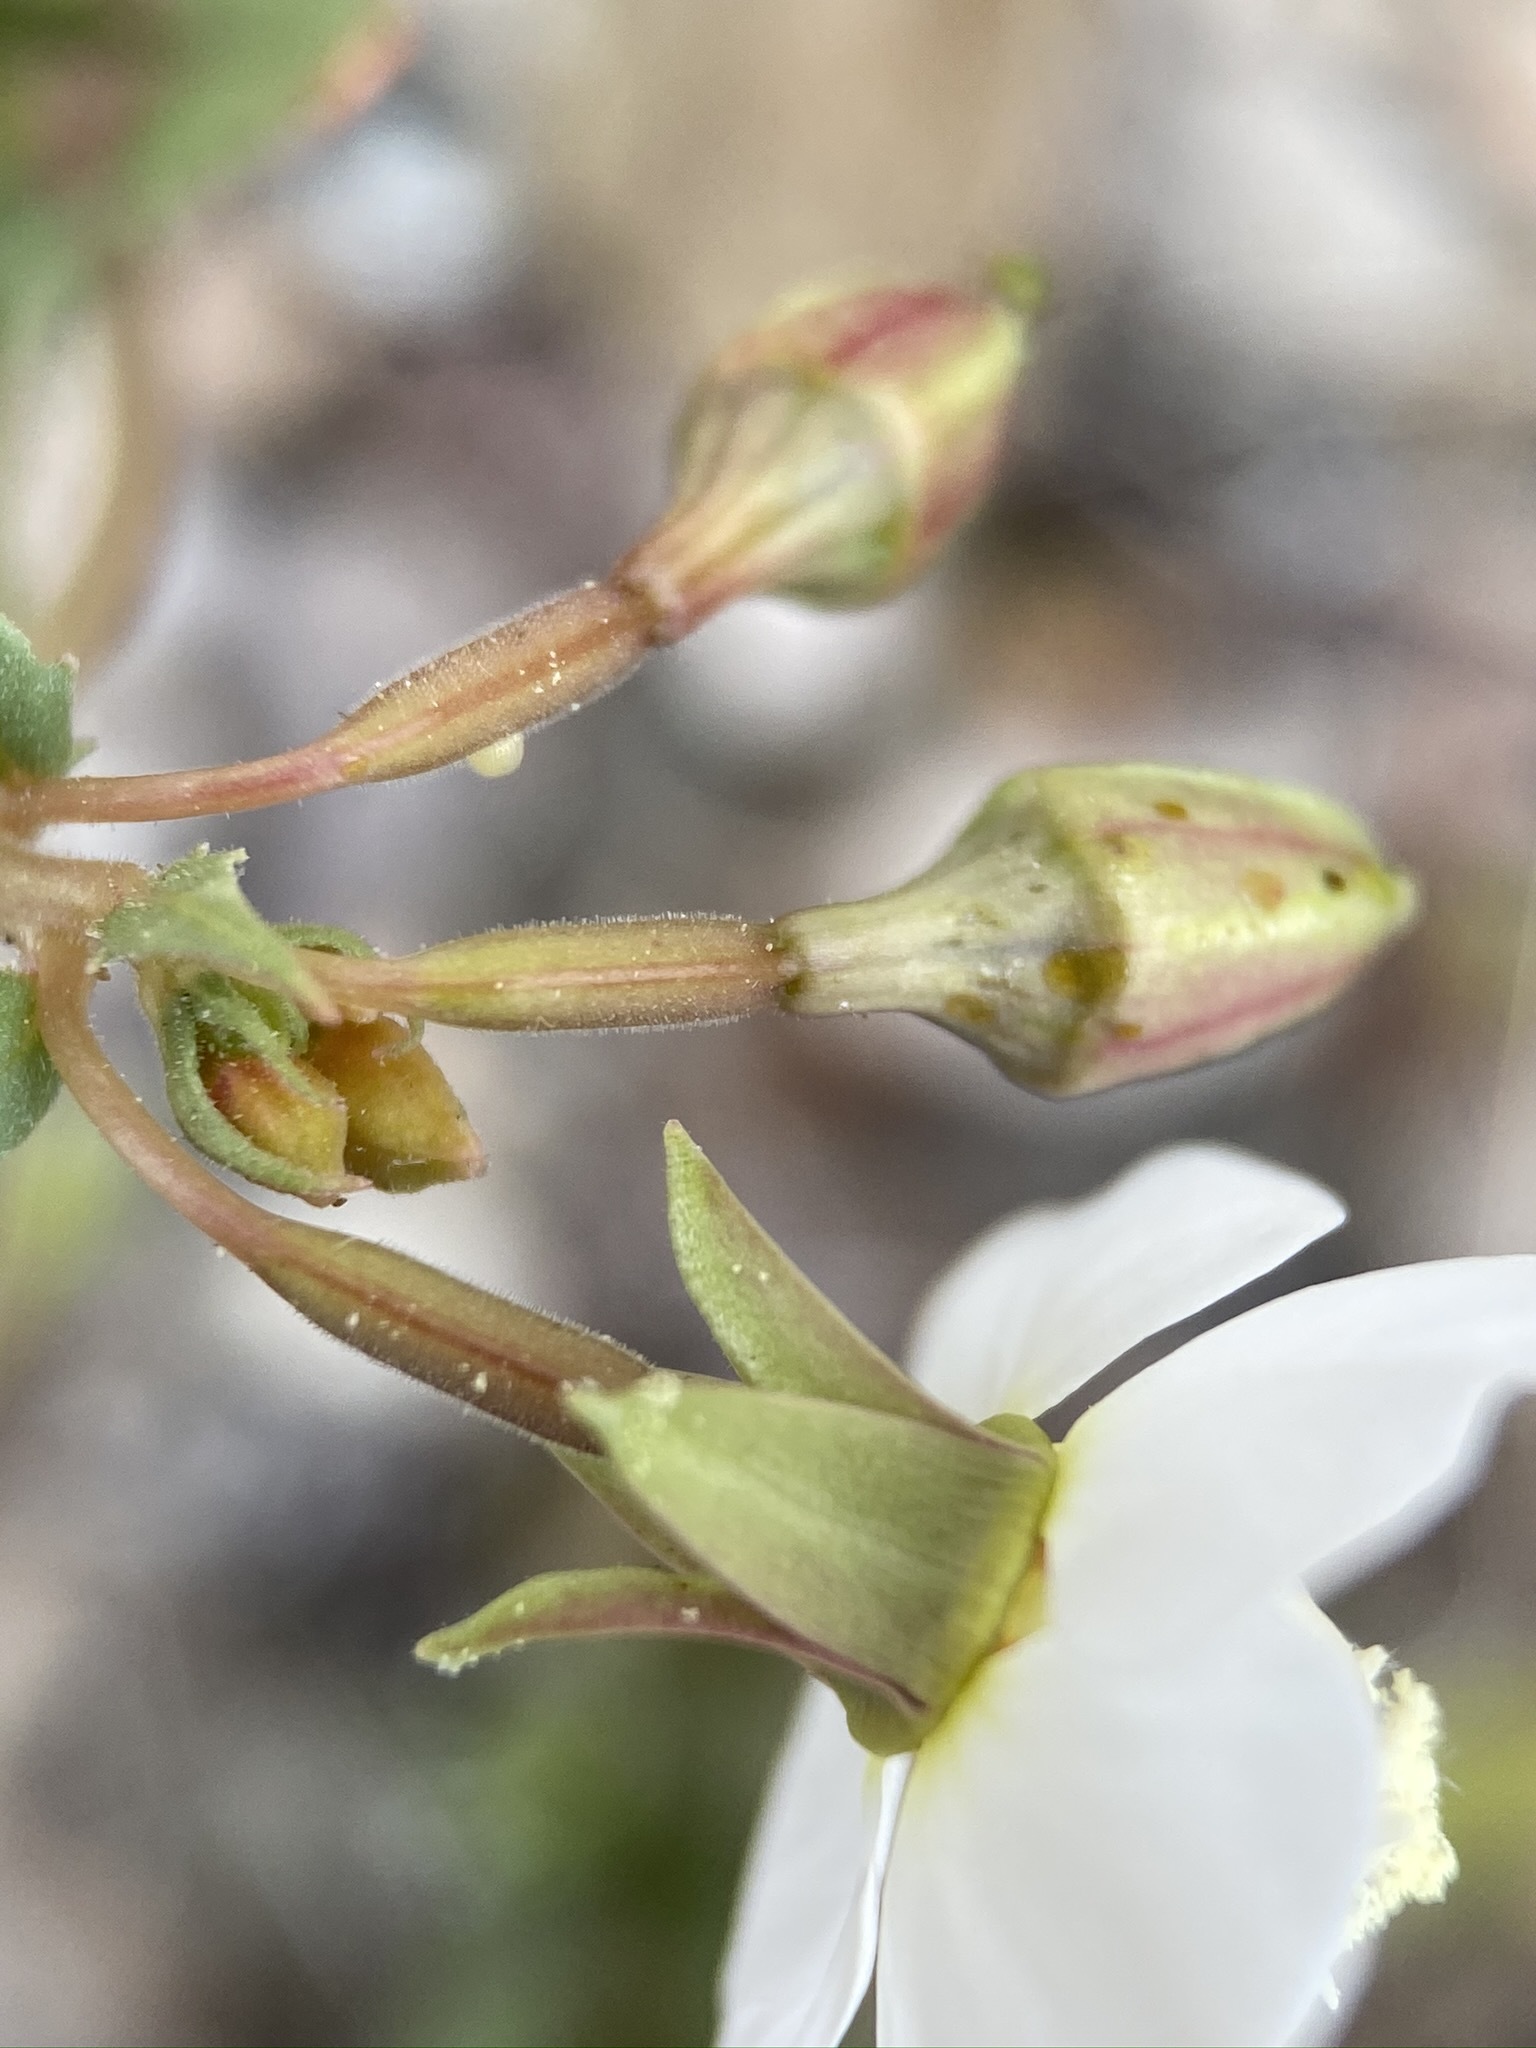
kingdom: Plantae
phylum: Tracheophyta
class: Magnoliopsida
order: Myrtales
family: Onagraceae
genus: Chylismia
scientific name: Chylismia claviformis
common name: Browneyes
